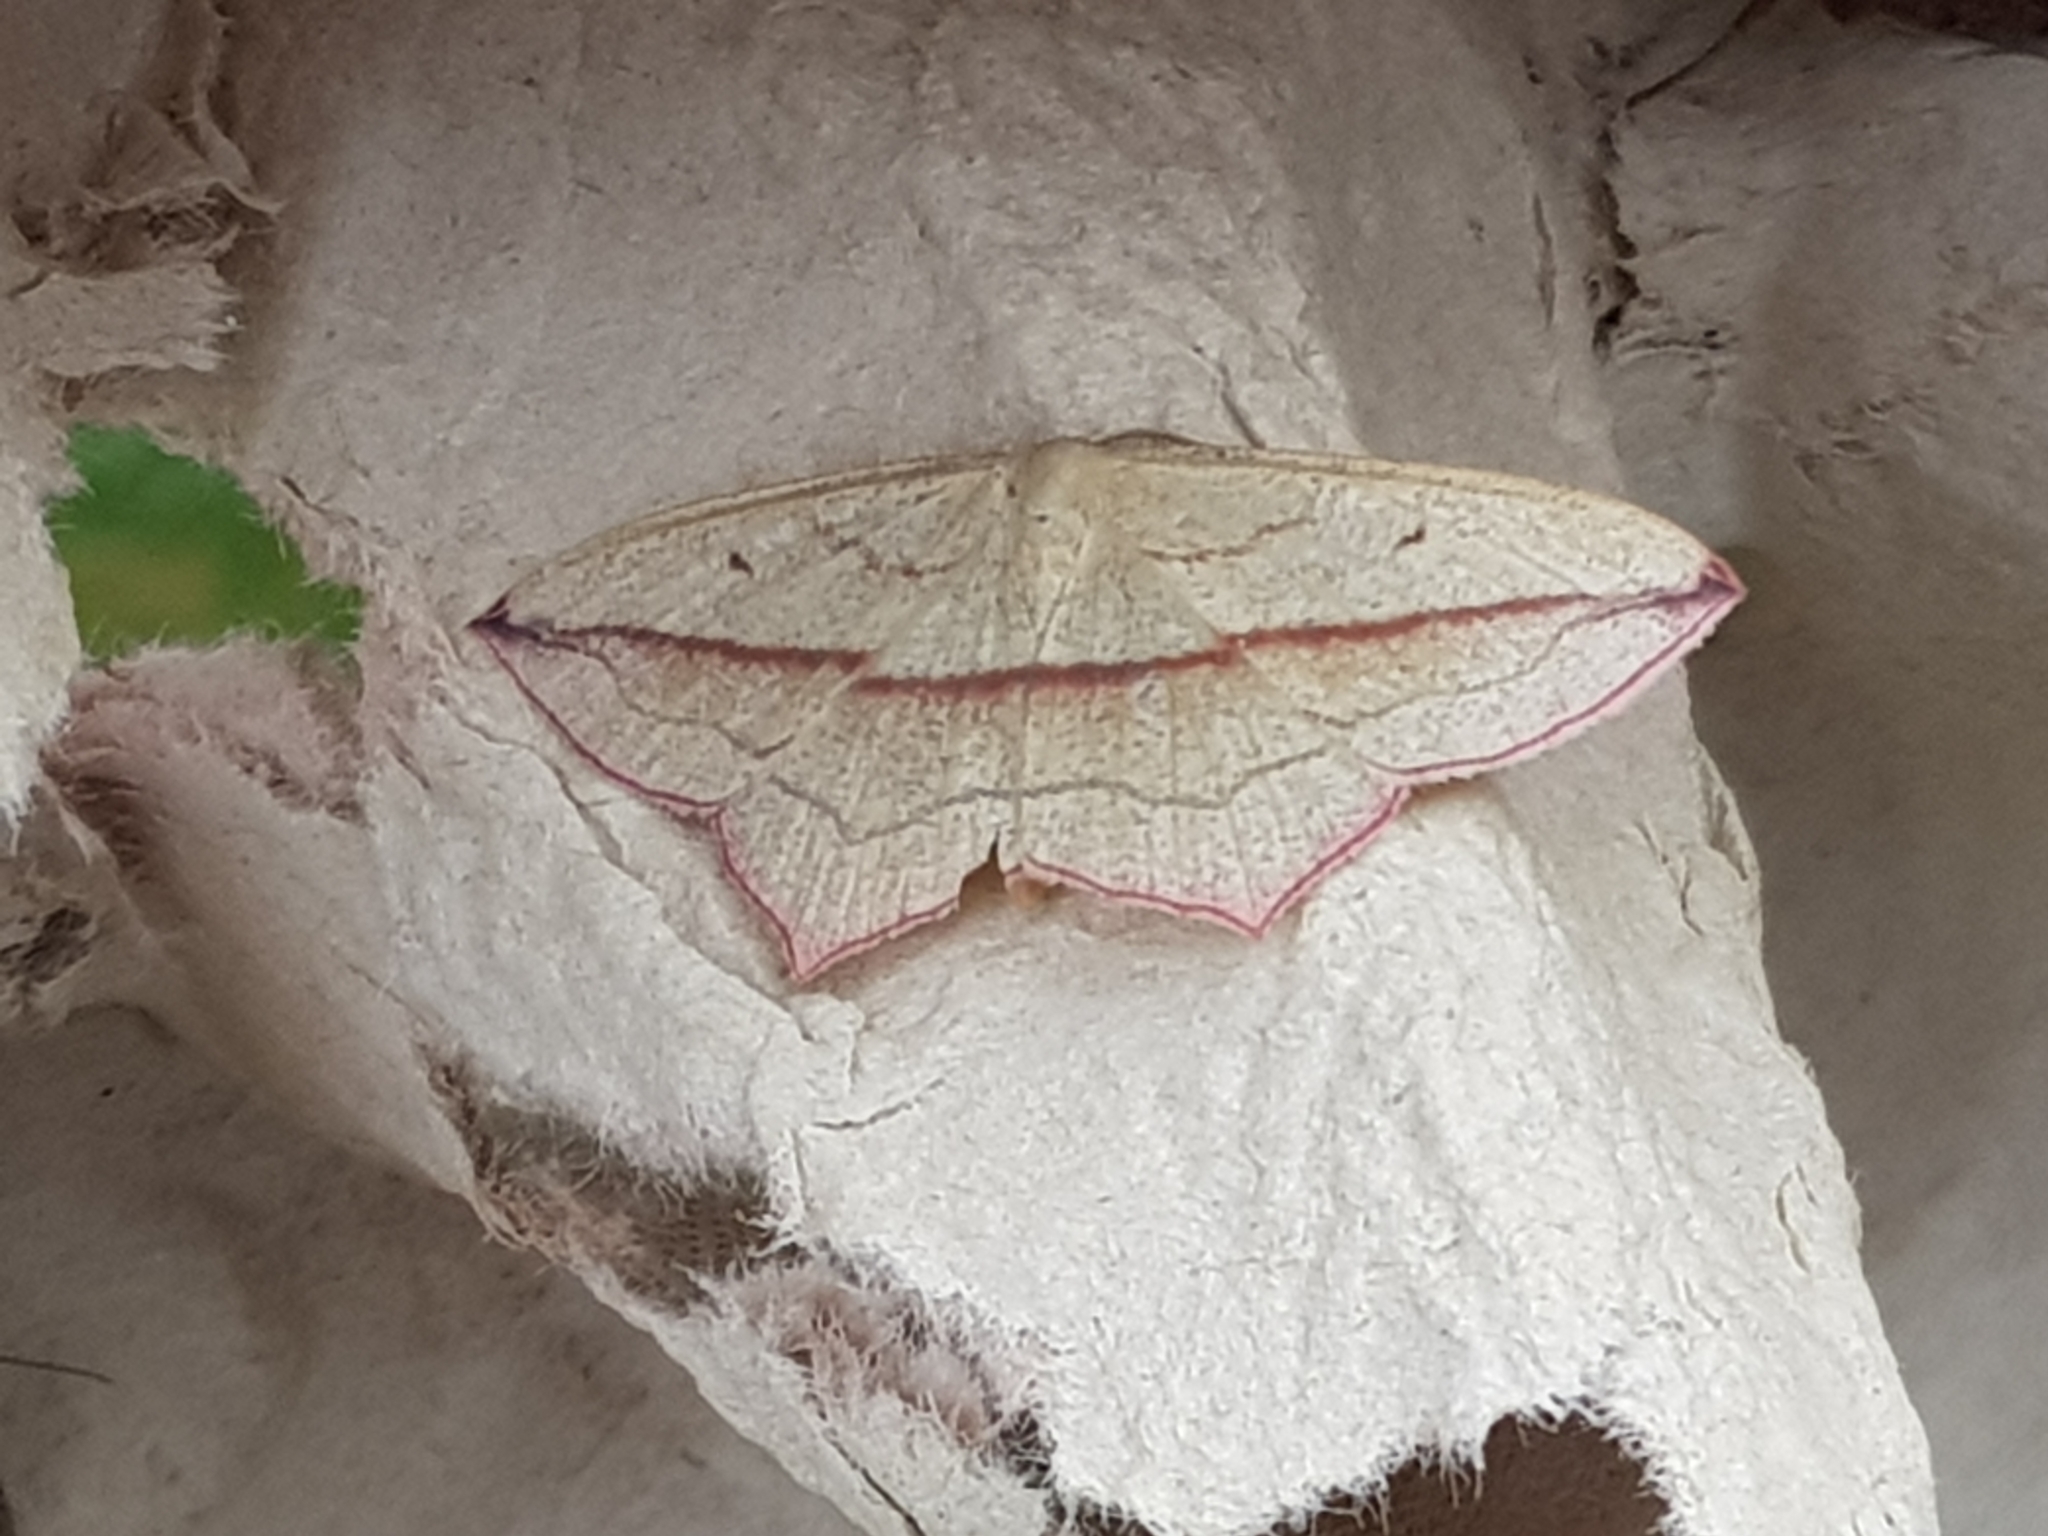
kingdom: Animalia
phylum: Arthropoda
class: Insecta
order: Lepidoptera
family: Geometridae
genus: Timandra
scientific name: Timandra comae
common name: Blood-vein
